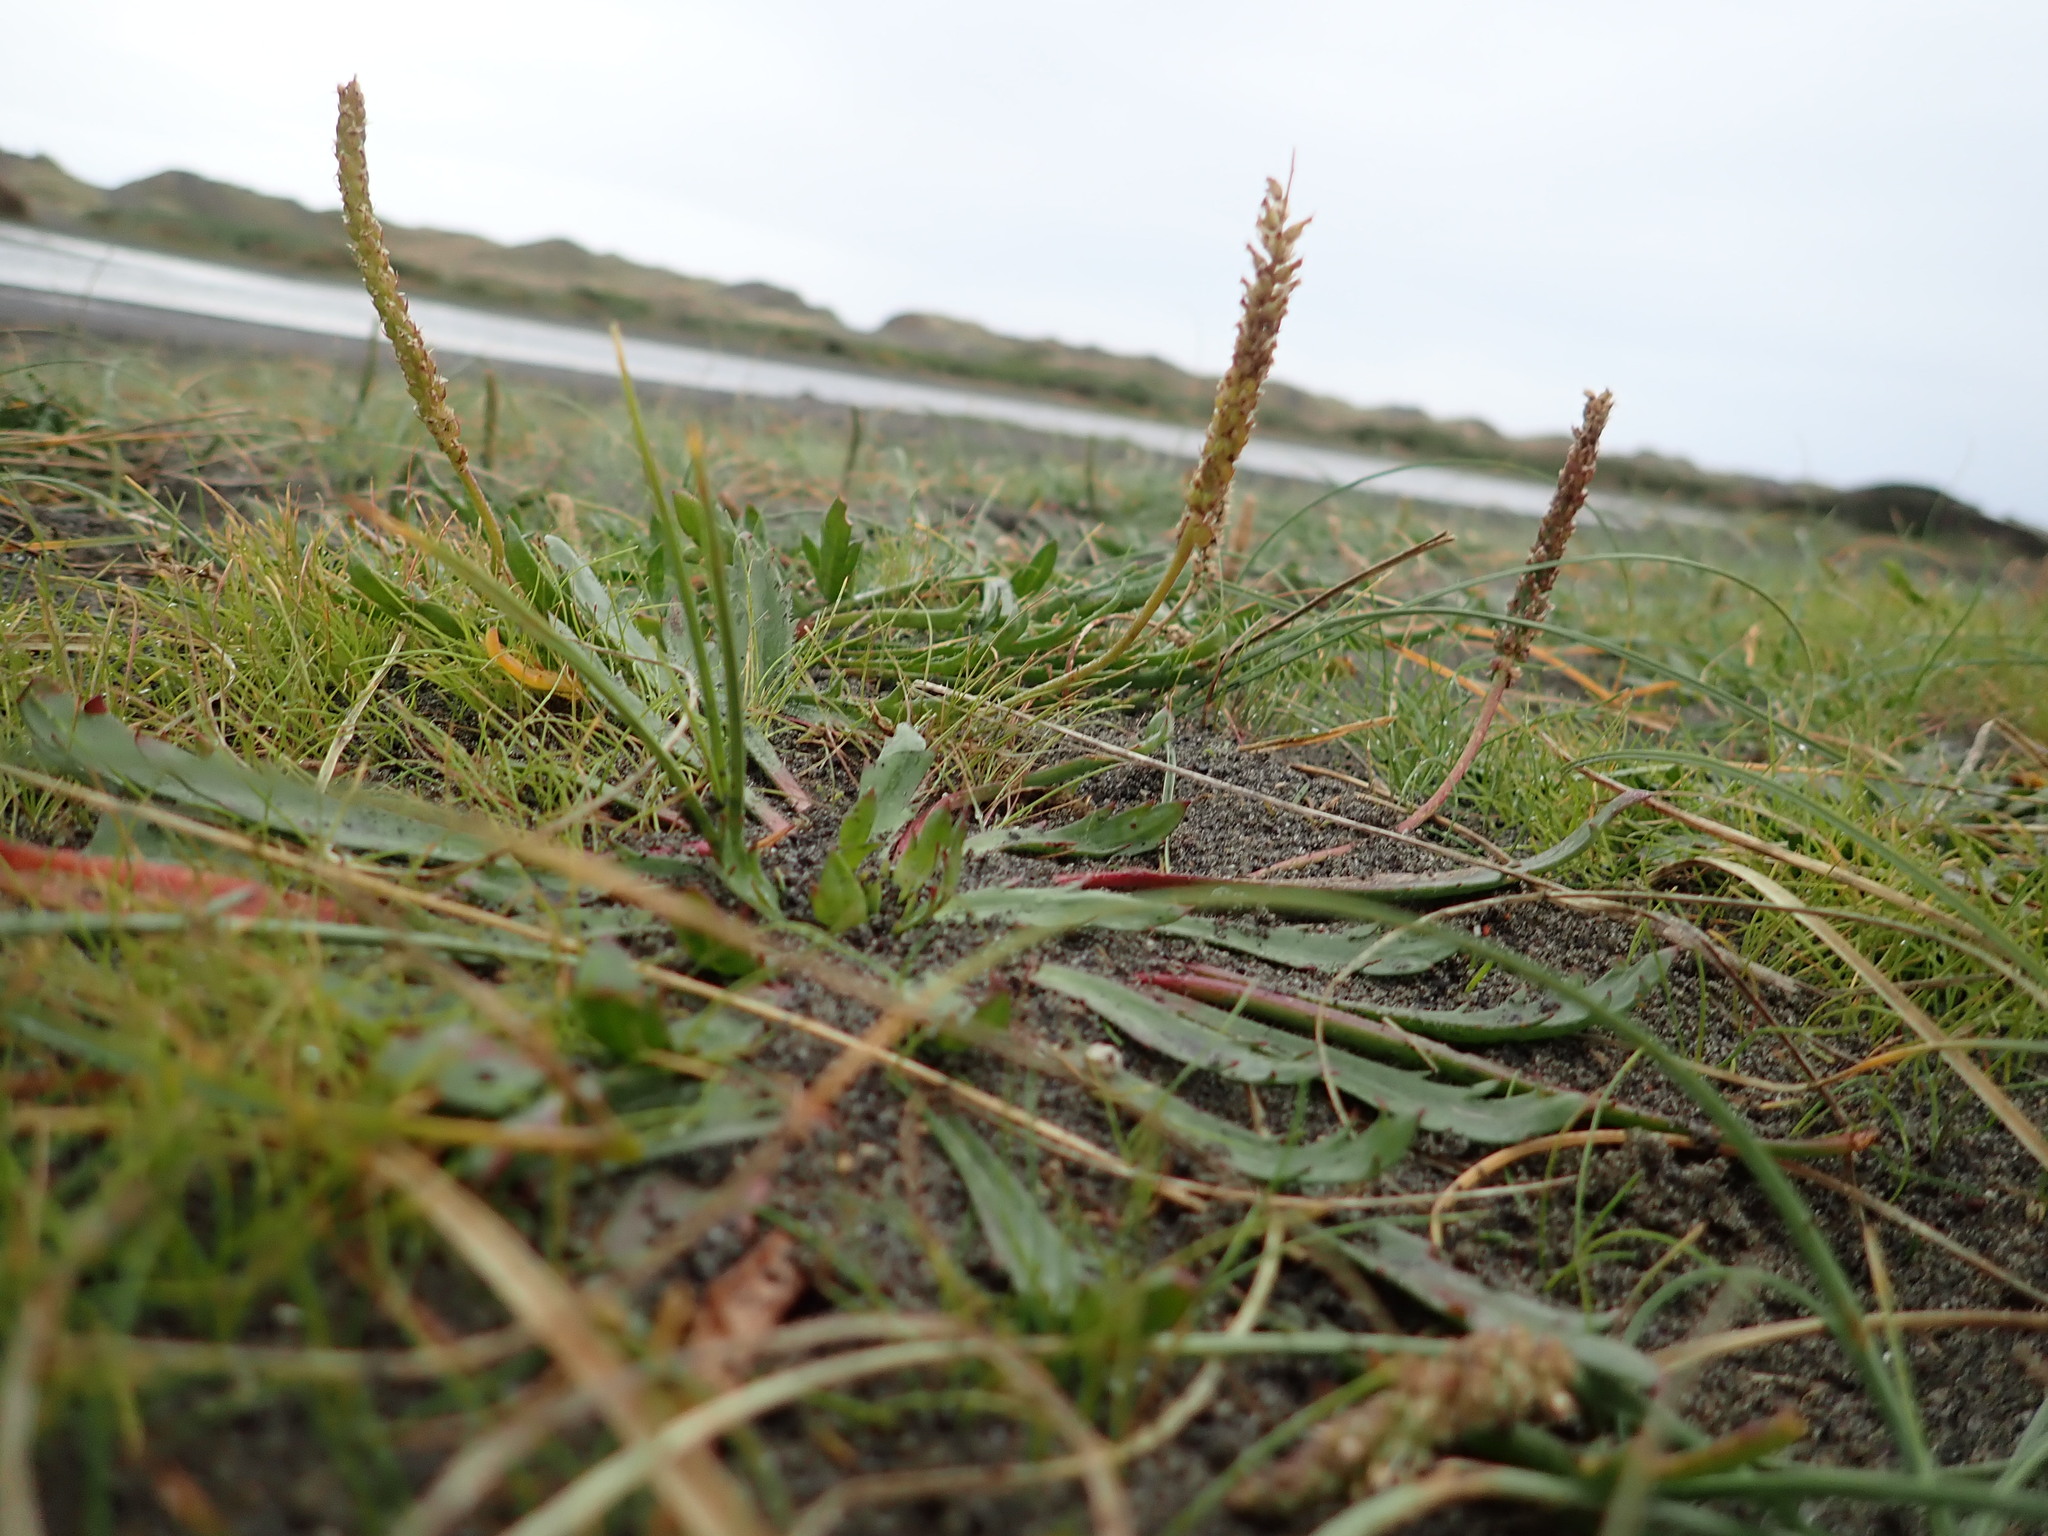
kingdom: Plantae
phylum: Tracheophyta
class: Magnoliopsida
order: Lamiales
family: Plantaginaceae
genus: Plantago
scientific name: Plantago coronopus
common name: Buck's-horn plantain
